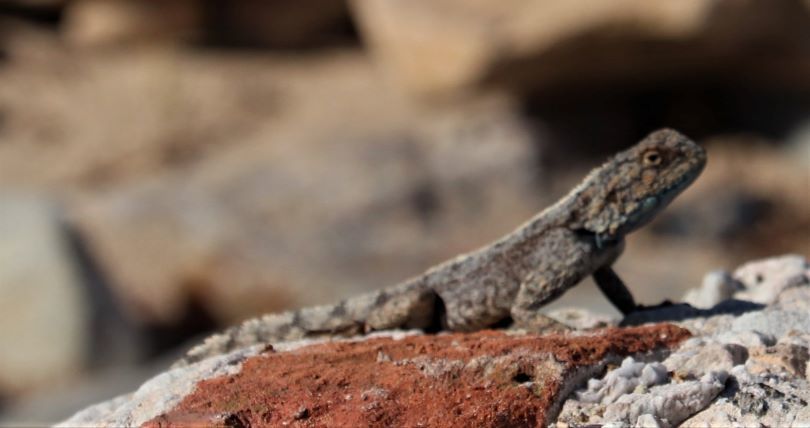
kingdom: Animalia
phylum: Chordata
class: Squamata
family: Agamidae
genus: Agama
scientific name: Agama atra
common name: Southern african rock agama
